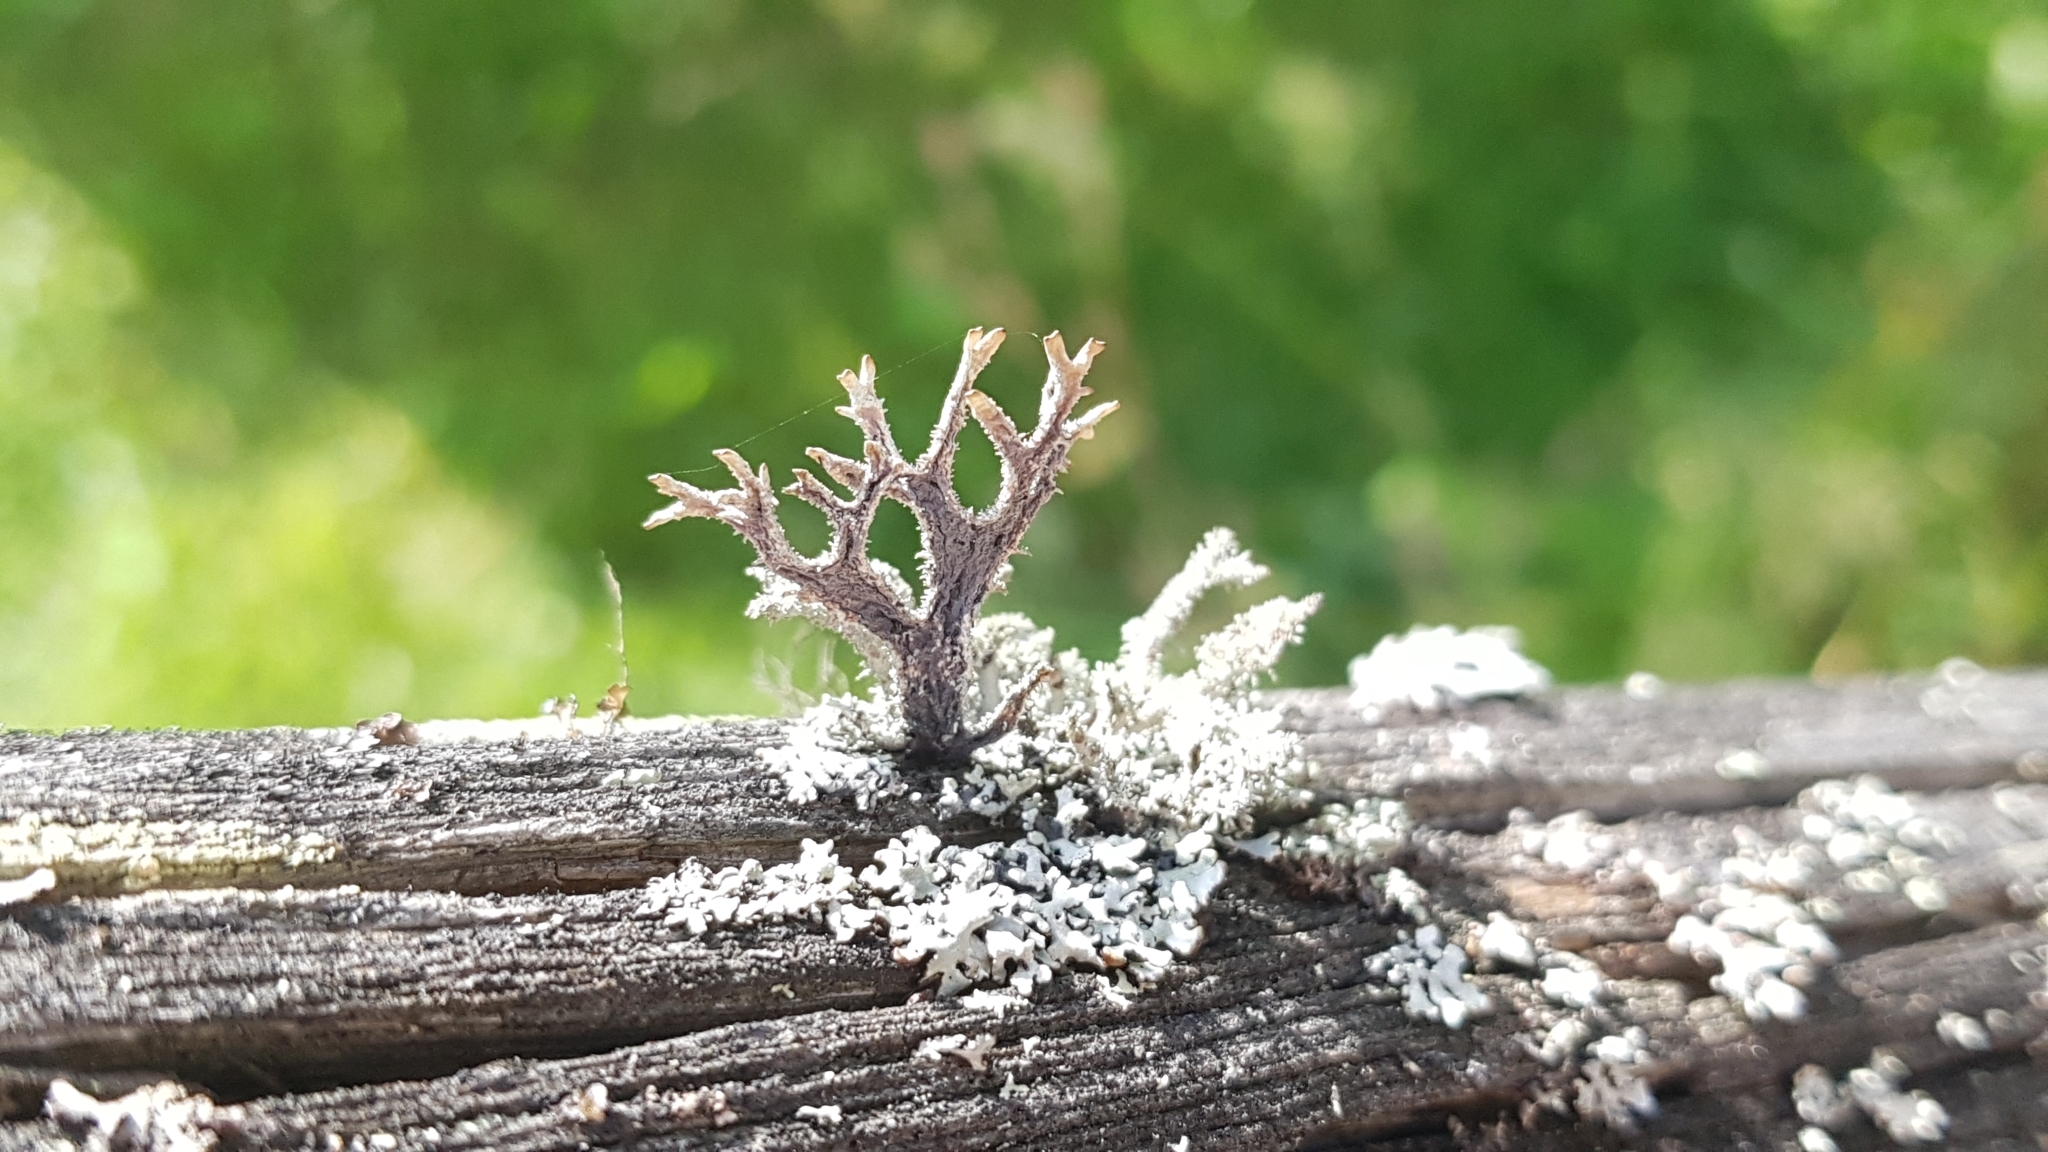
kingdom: Fungi
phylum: Ascomycota
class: Lecanoromycetes
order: Lecanorales
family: Parmeliaceae
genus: Pseudevernia
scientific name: Pseudevernia furfuracea
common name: Tree moss
